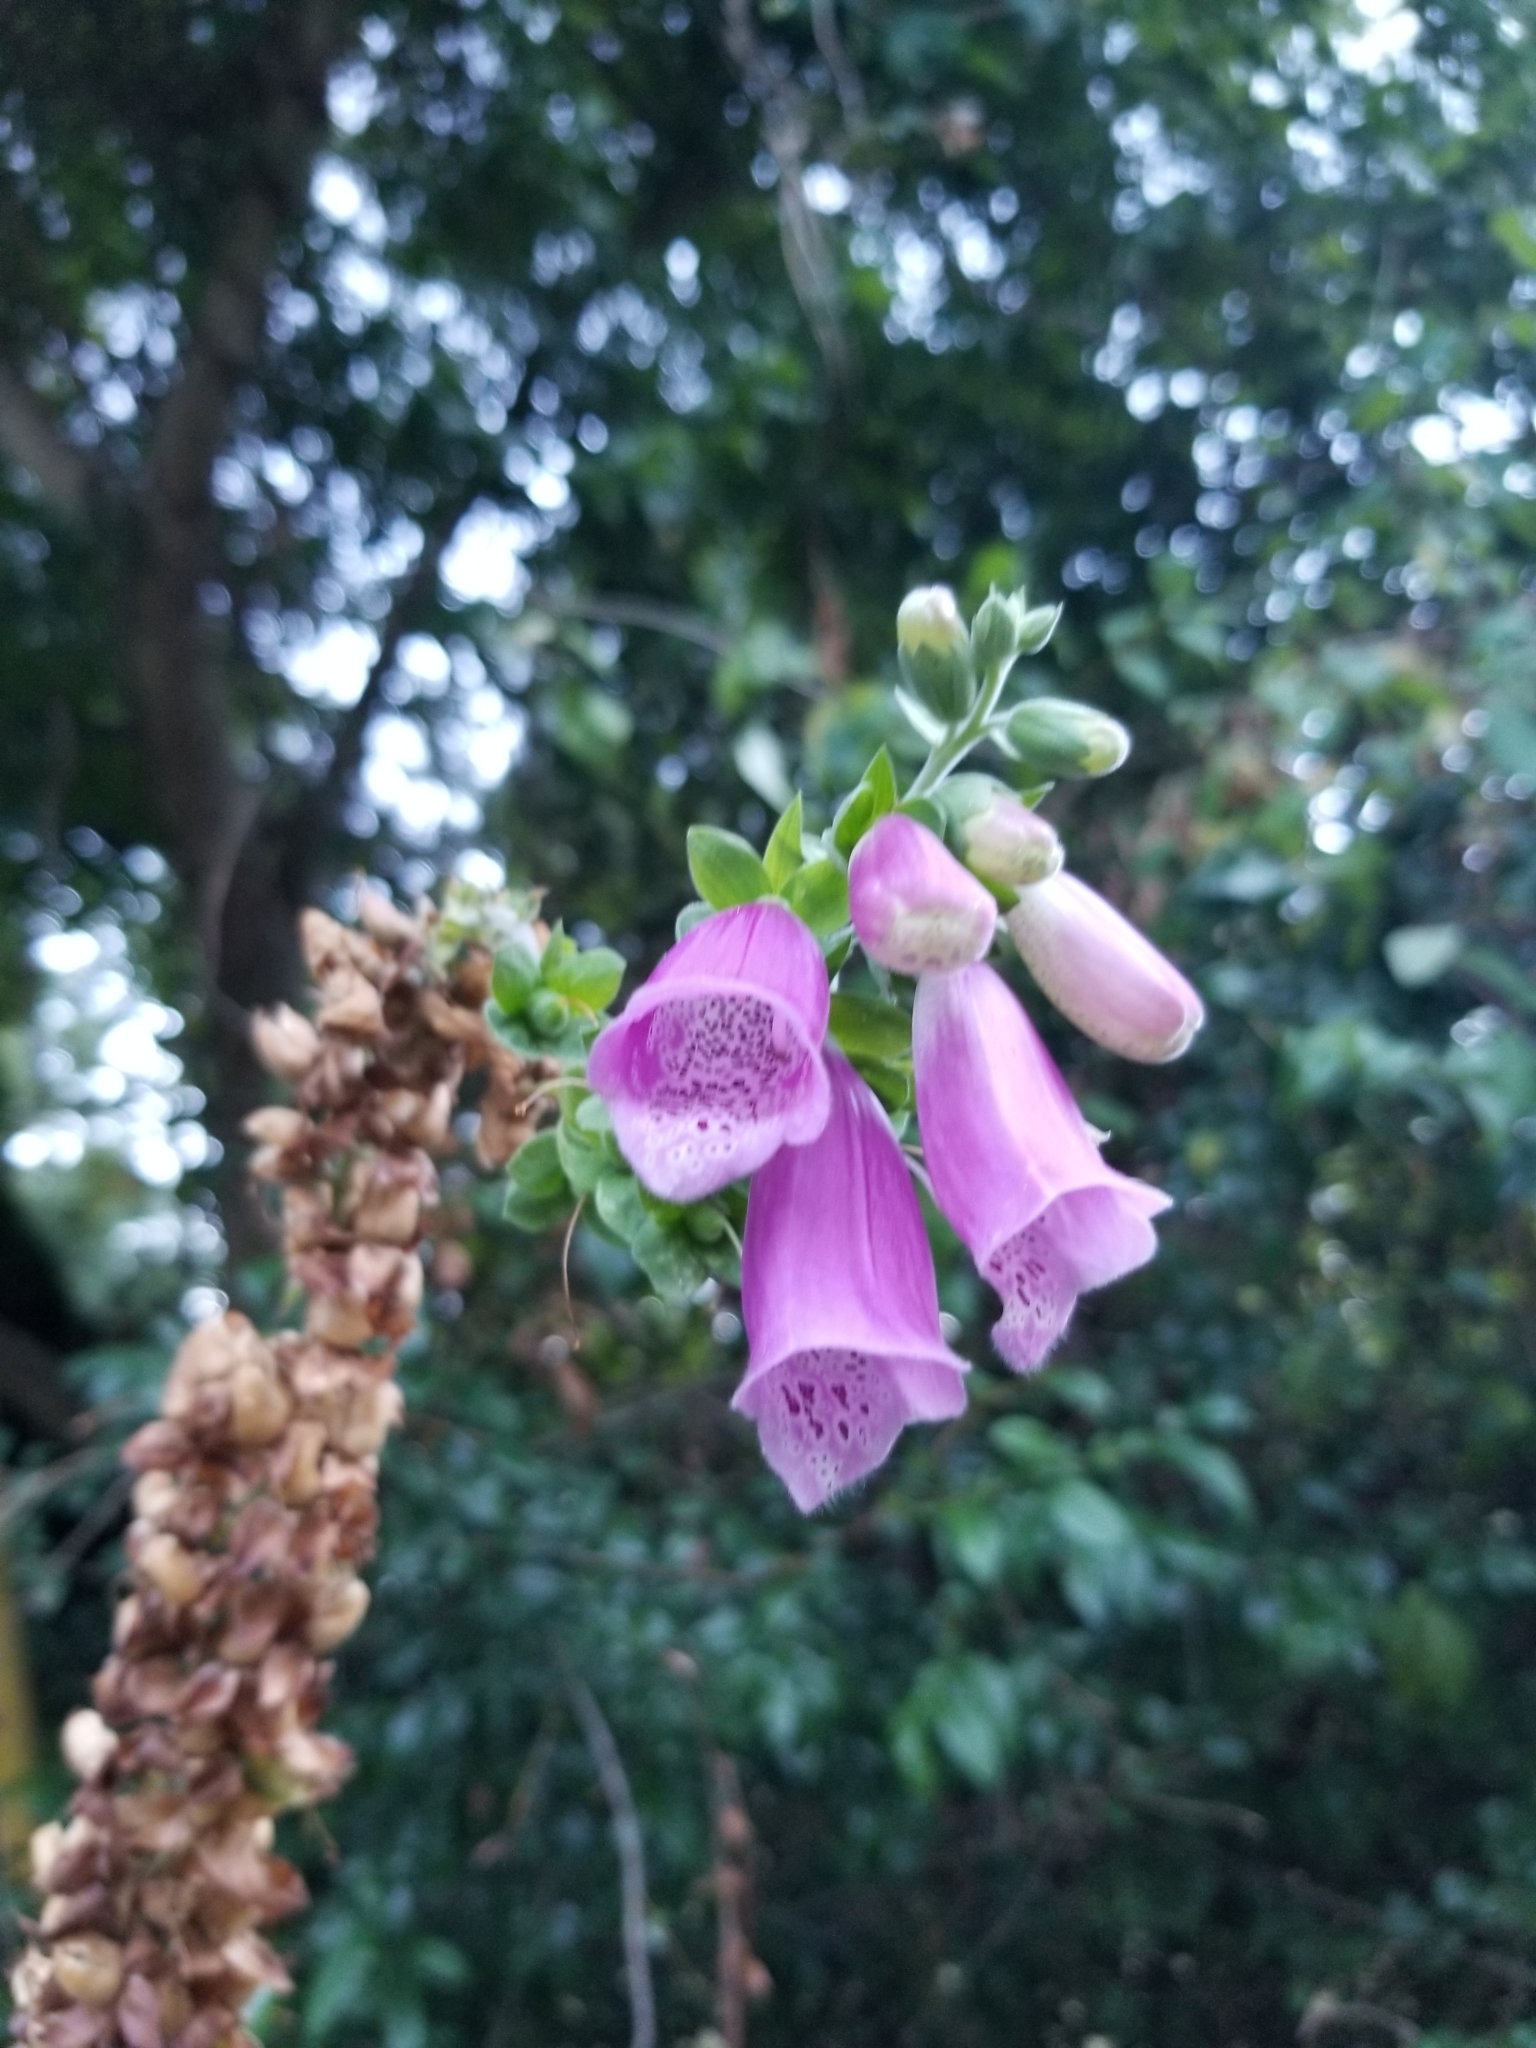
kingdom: Plantae
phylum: Tracheophyta
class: Magnoliopsida
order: Lamiales
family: Plantaginaceae
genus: Digitalis
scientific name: Digitalis purpurea
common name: Foxglove
